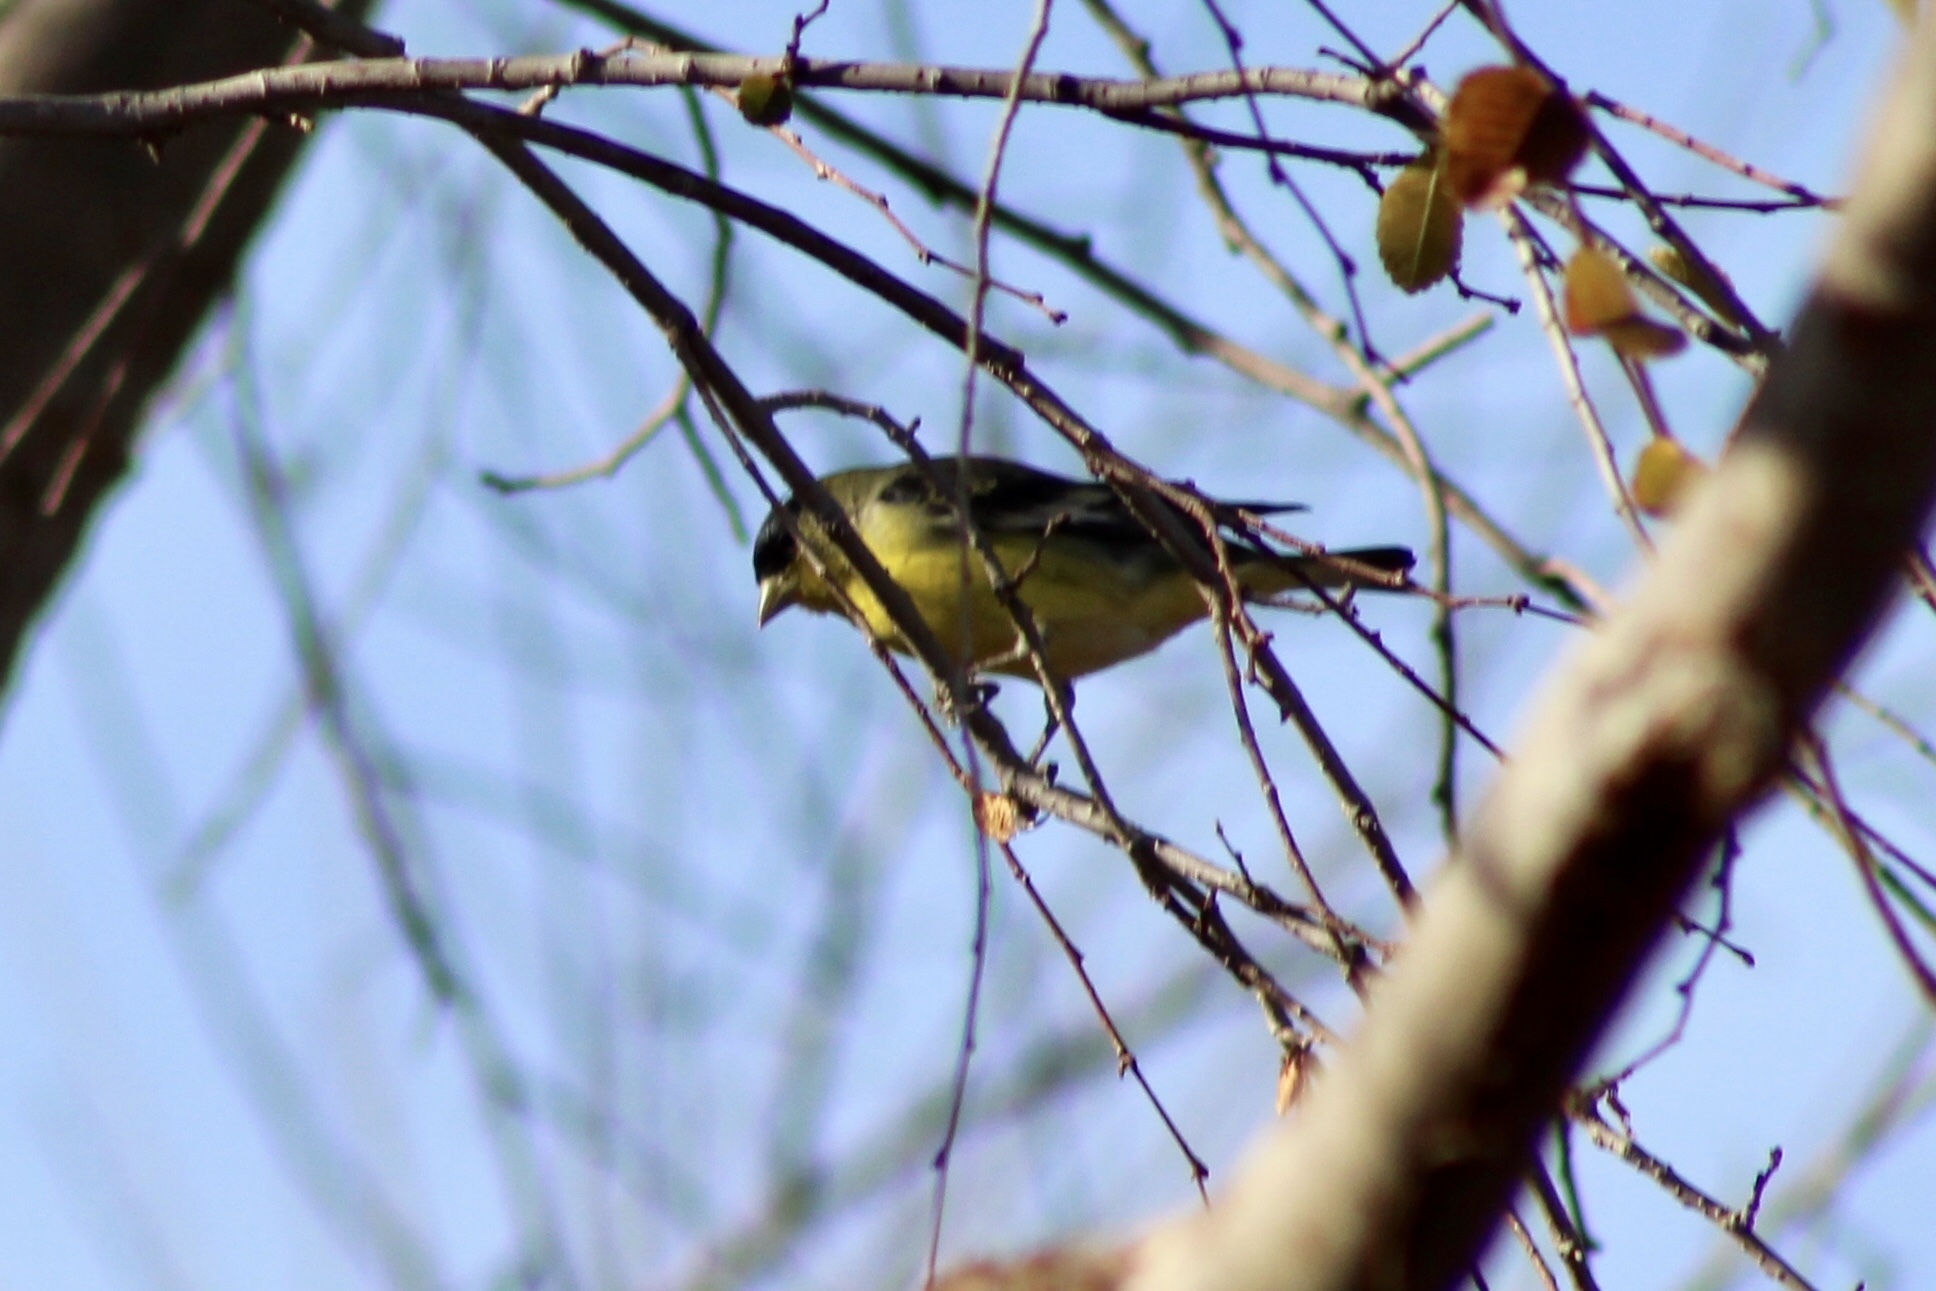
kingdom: Animalia
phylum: Chordata
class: Aves
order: Passeriformes
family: Fringillidae
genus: Spinus
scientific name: Spinus psaltria
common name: Lesser goldfinch
